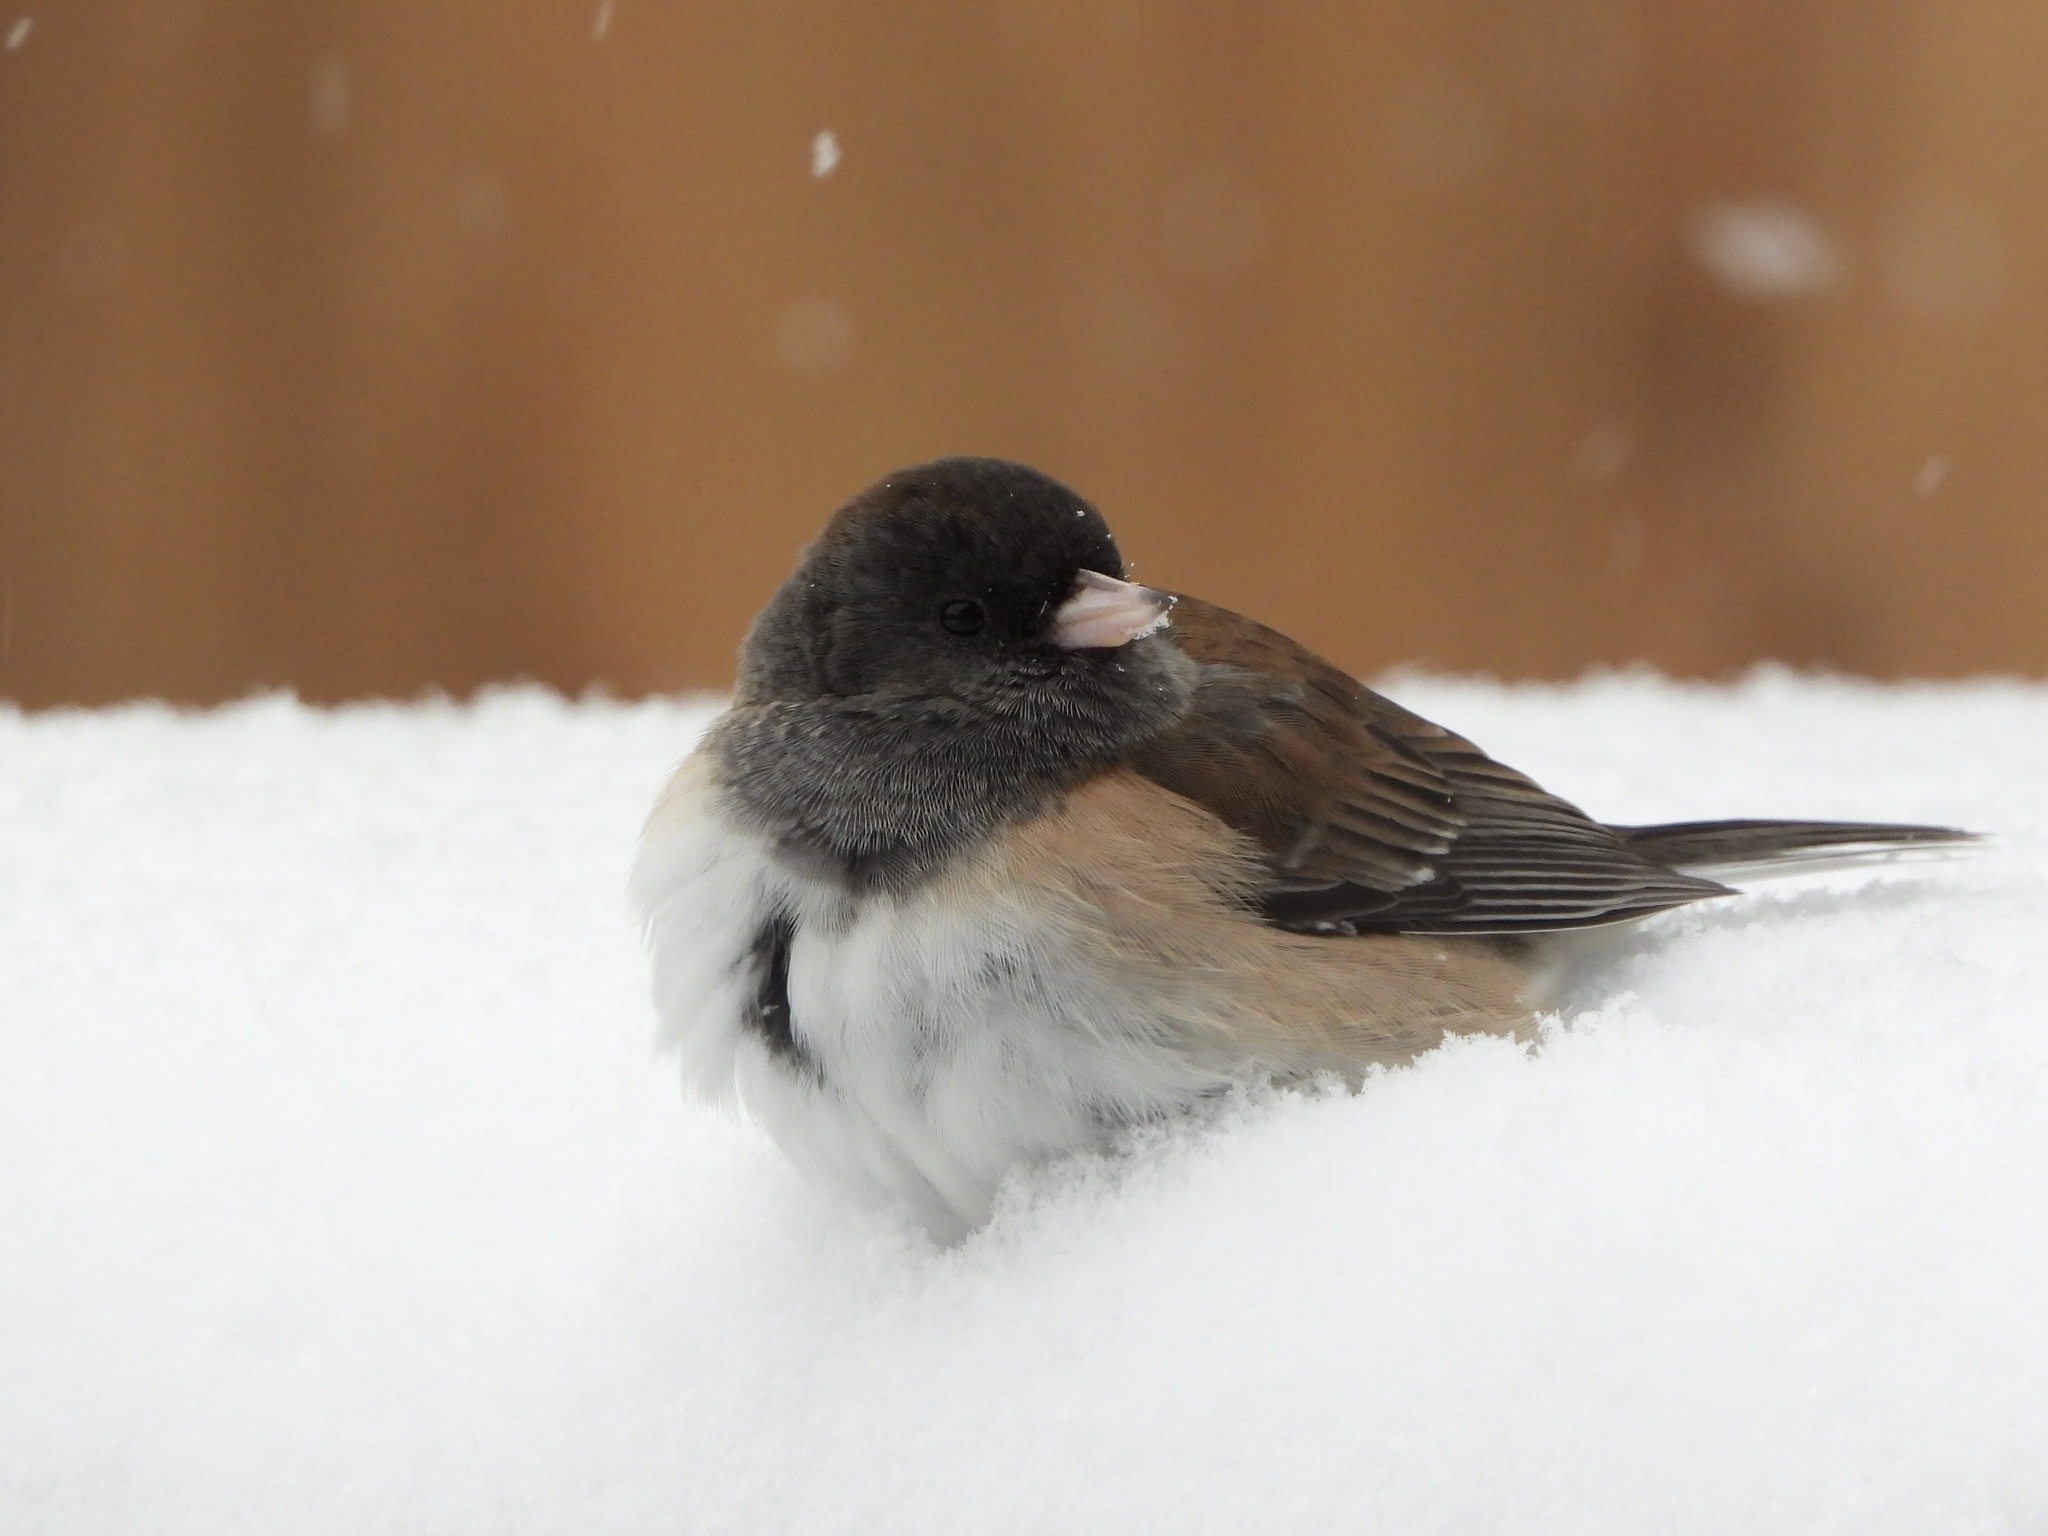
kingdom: Animalia
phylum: Chordata
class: Aves
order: Passeriformes
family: Passerellidae
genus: Junco
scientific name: Junco hyemalis
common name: Dark-eyed junco
